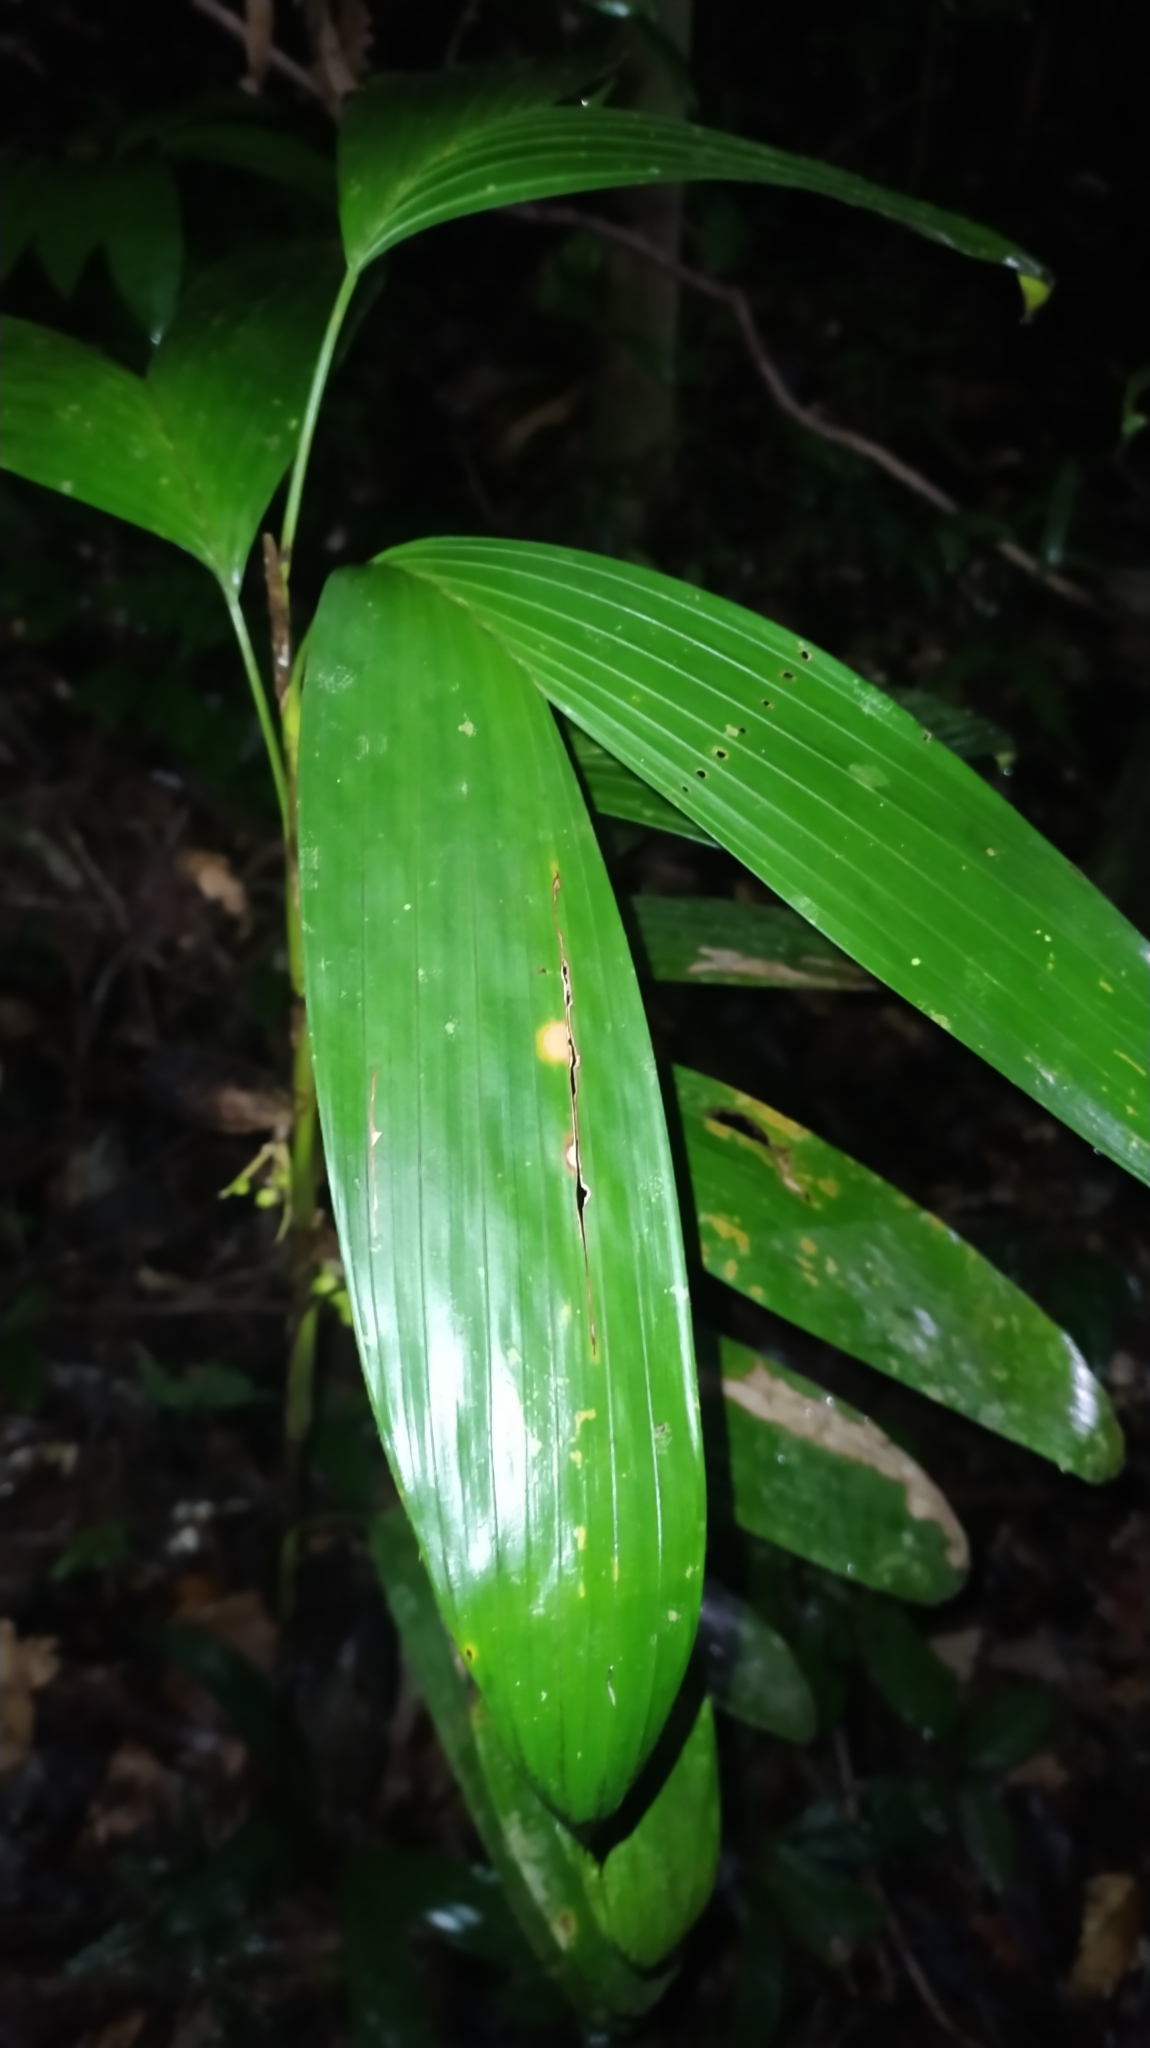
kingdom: Plantae
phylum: Tracheophyta
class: Liliopsida
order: Arecales
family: Arecaceae
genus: Bactris
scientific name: Bactris aubletiana
